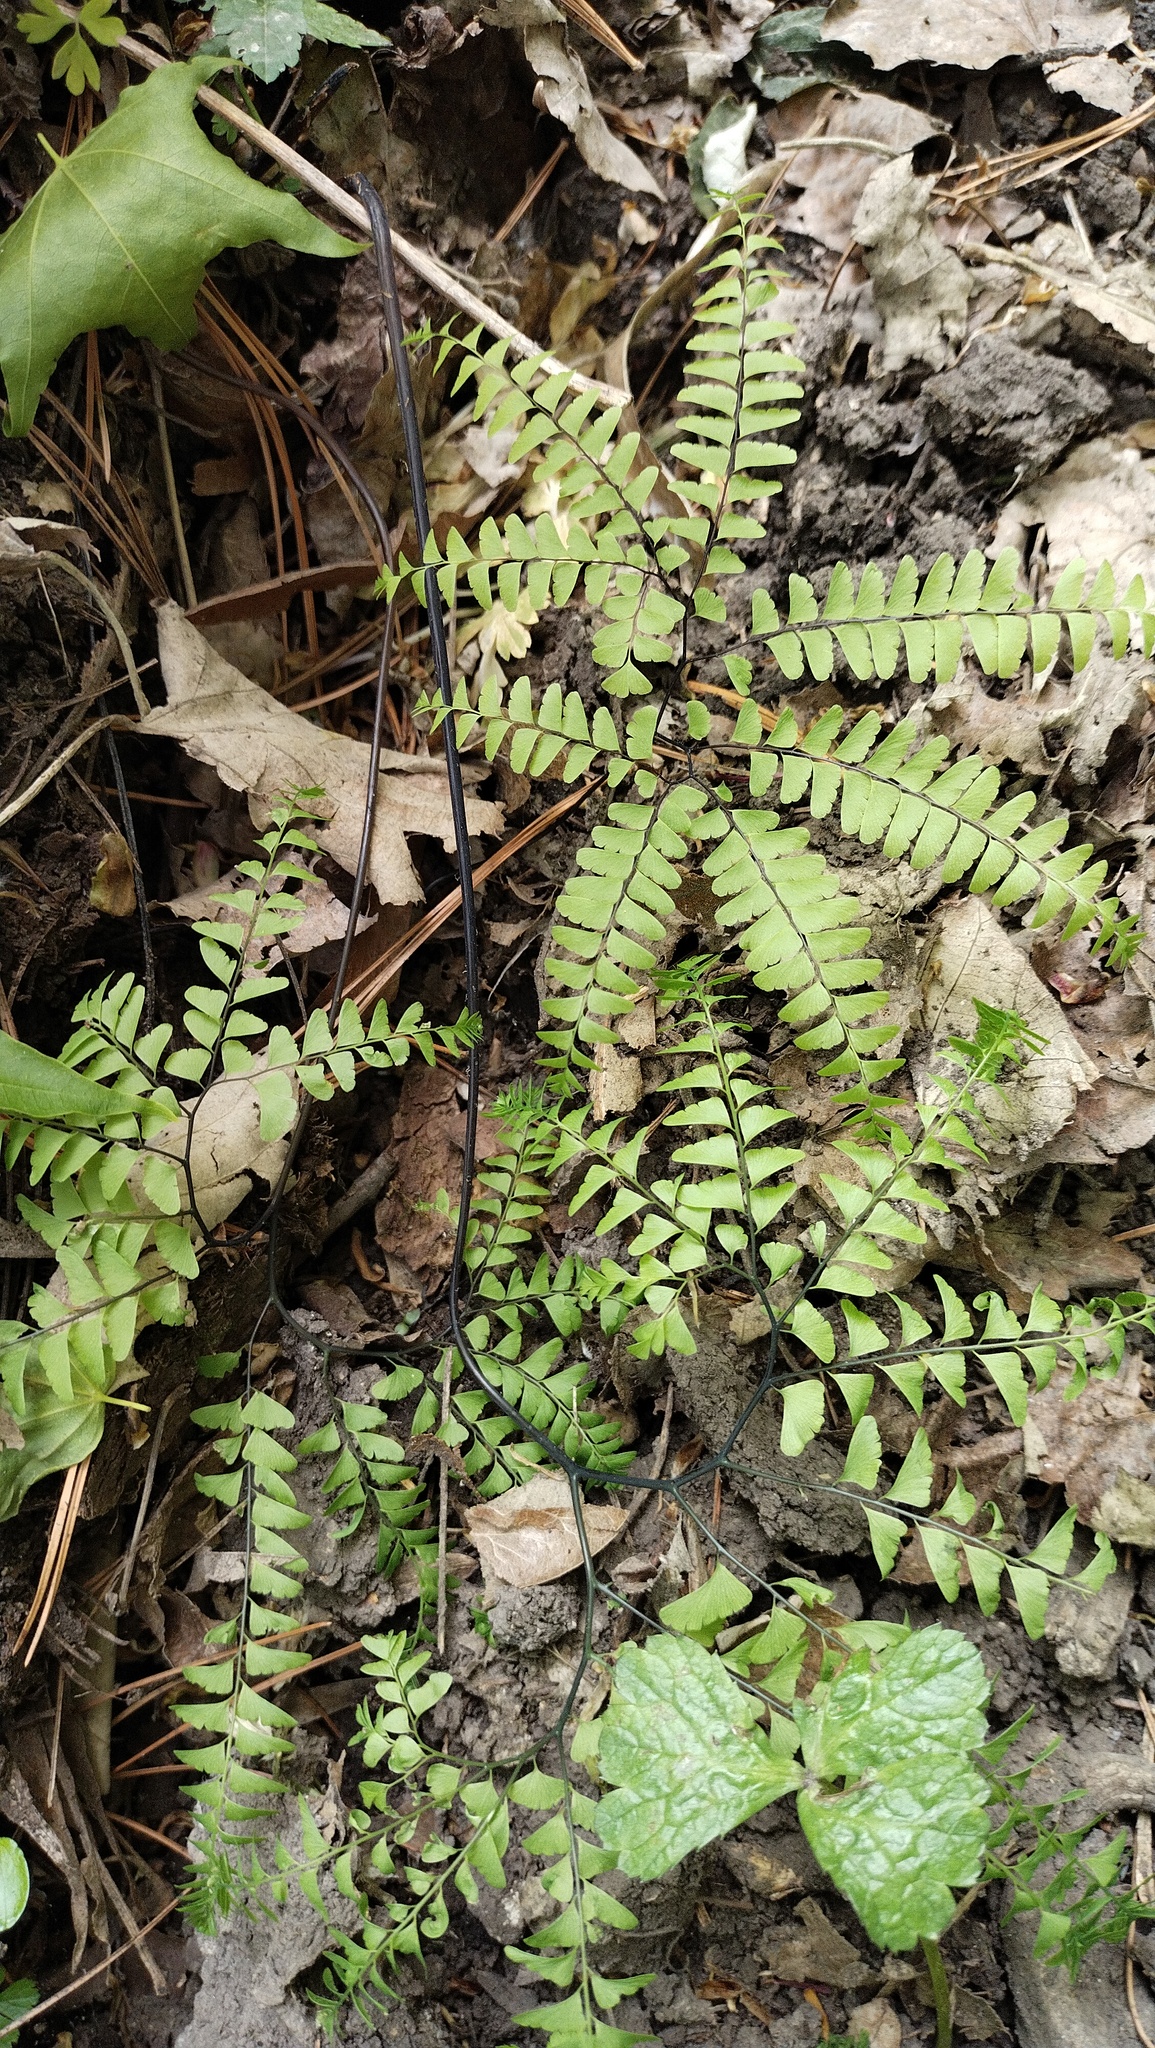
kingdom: Plantae
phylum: Tracheophyta
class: Polypodiopsida
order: Polypodiales
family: Pteridaceae
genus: Adiantum
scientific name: Adiantum pedatum
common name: Five-finger fern
